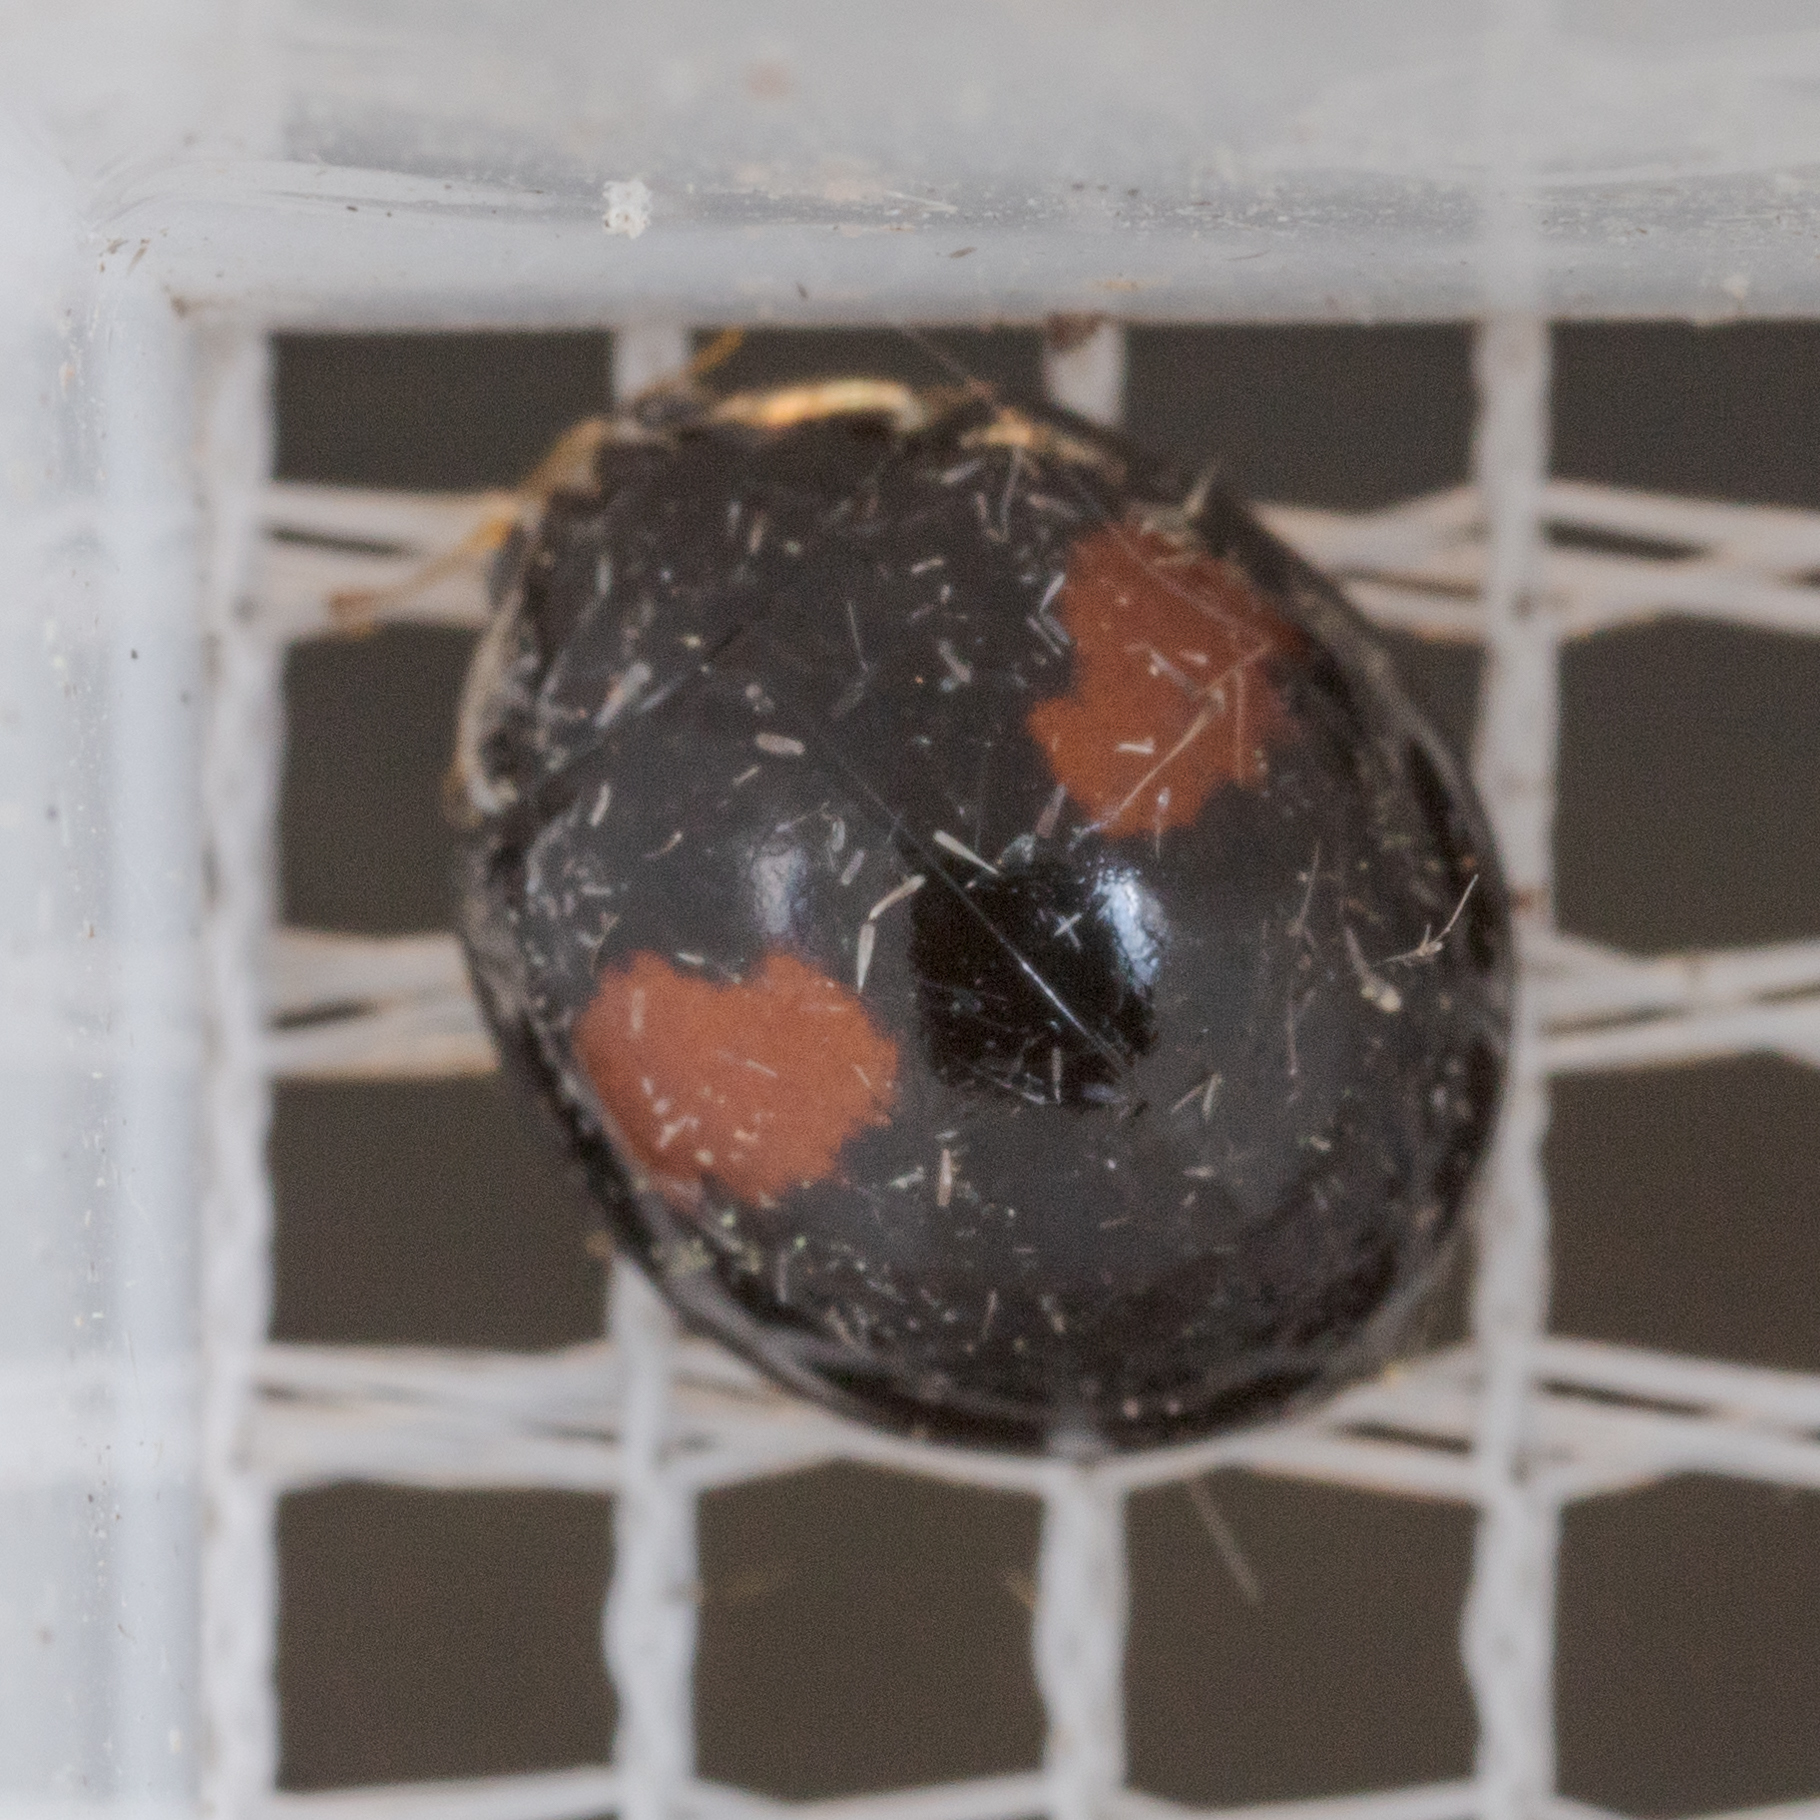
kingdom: Animalia
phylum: Arthropoda
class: Insecta
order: Coleoptera
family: Coccinellidae
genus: Olla
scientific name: Olla v-nigrum
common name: Ashy gray lady beetle
